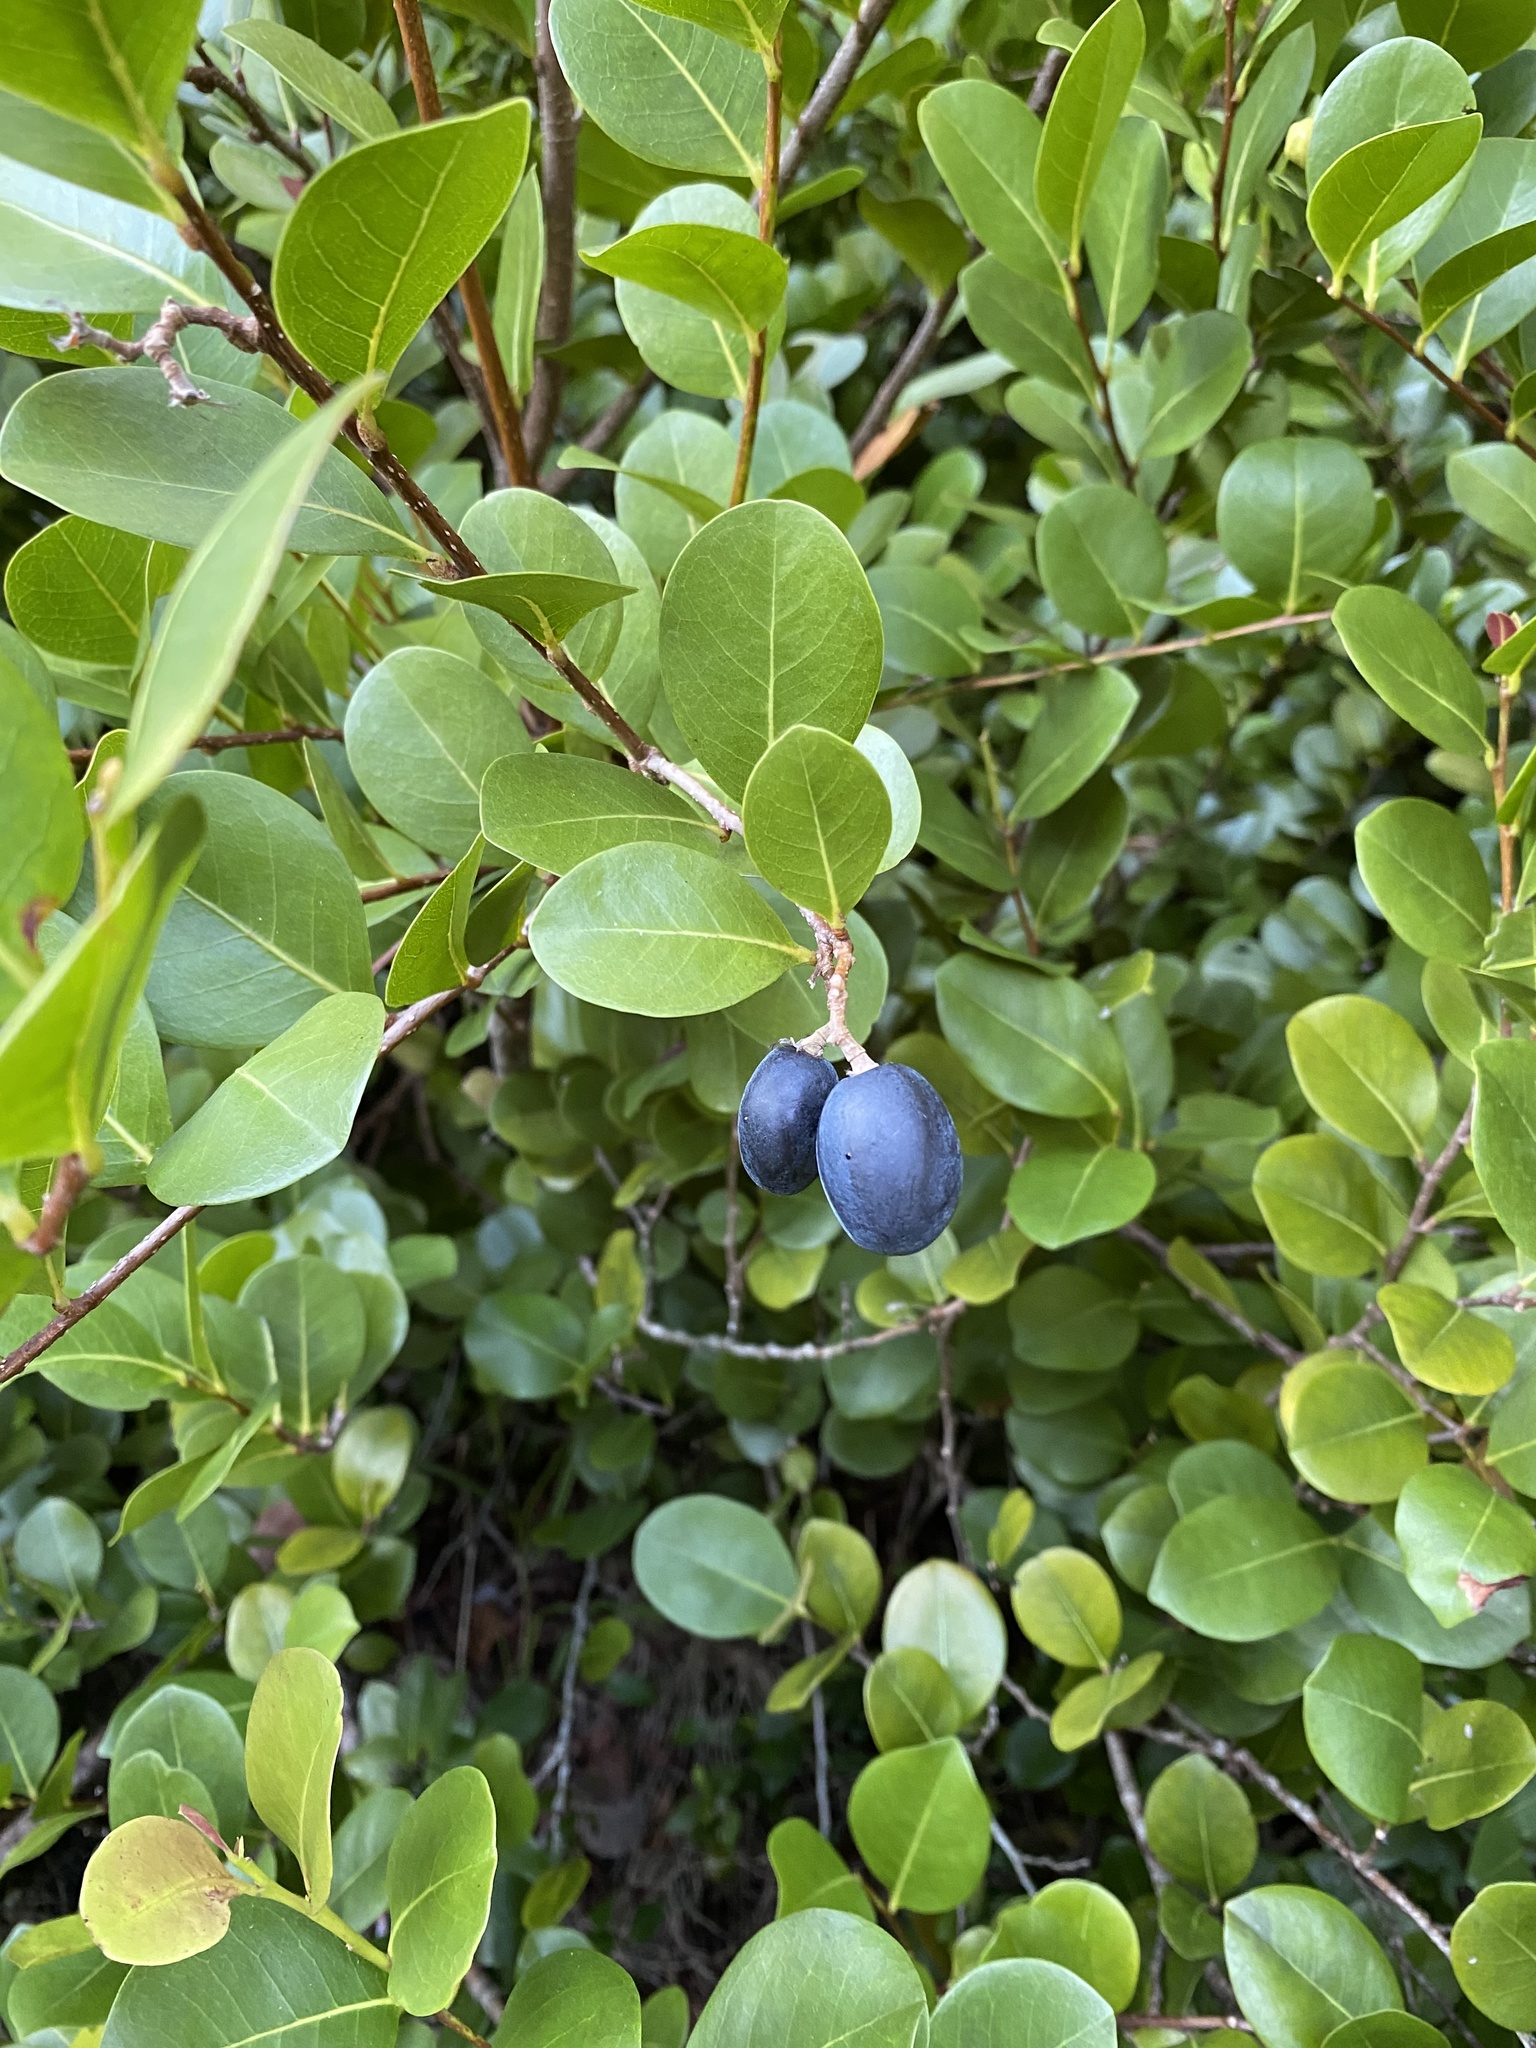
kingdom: Plantae
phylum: Tracheophyta
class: Magnoliopsida
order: Malpighiales
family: Chrysobalanaceae
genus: Chrysobalanus
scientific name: Chrysobalanus icaco
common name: Coco plum
